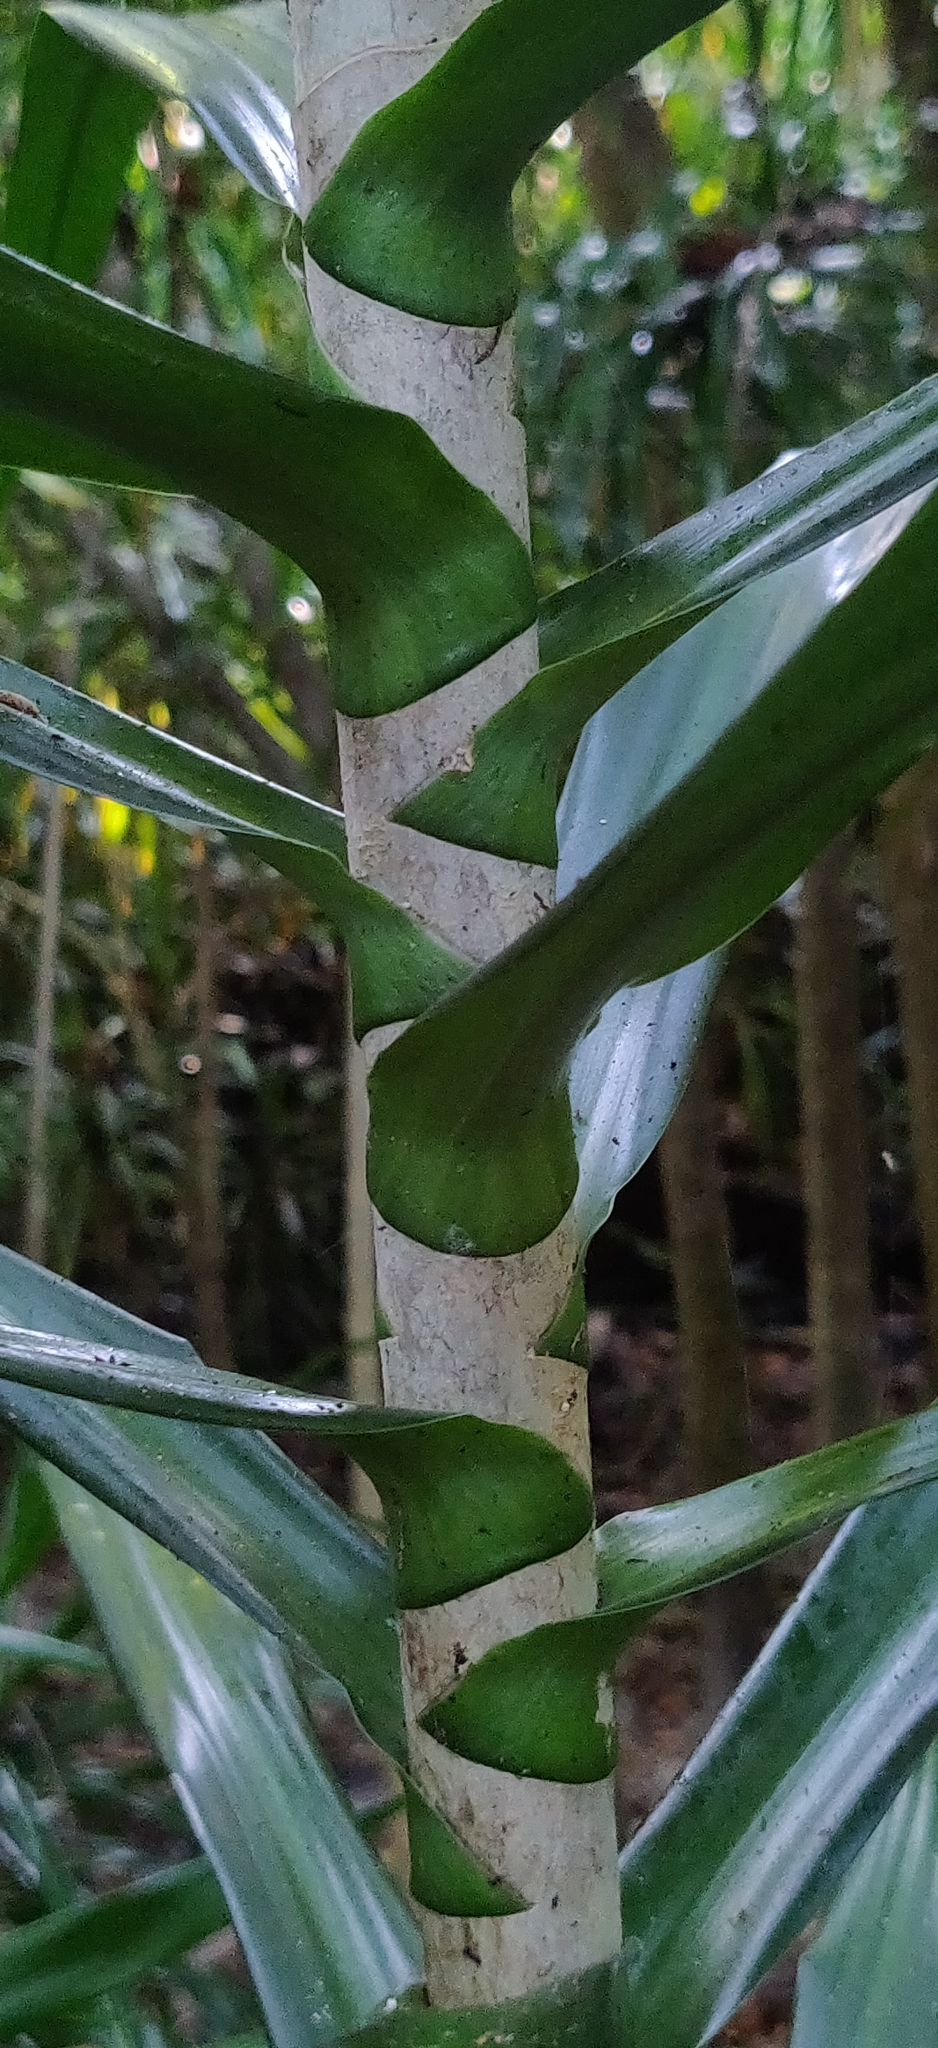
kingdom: Plantae
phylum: Tracheophyta
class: Liliopsida
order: Asparagales
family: Asparagaceae
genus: Dracaena
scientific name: Dracaena angustifolia
